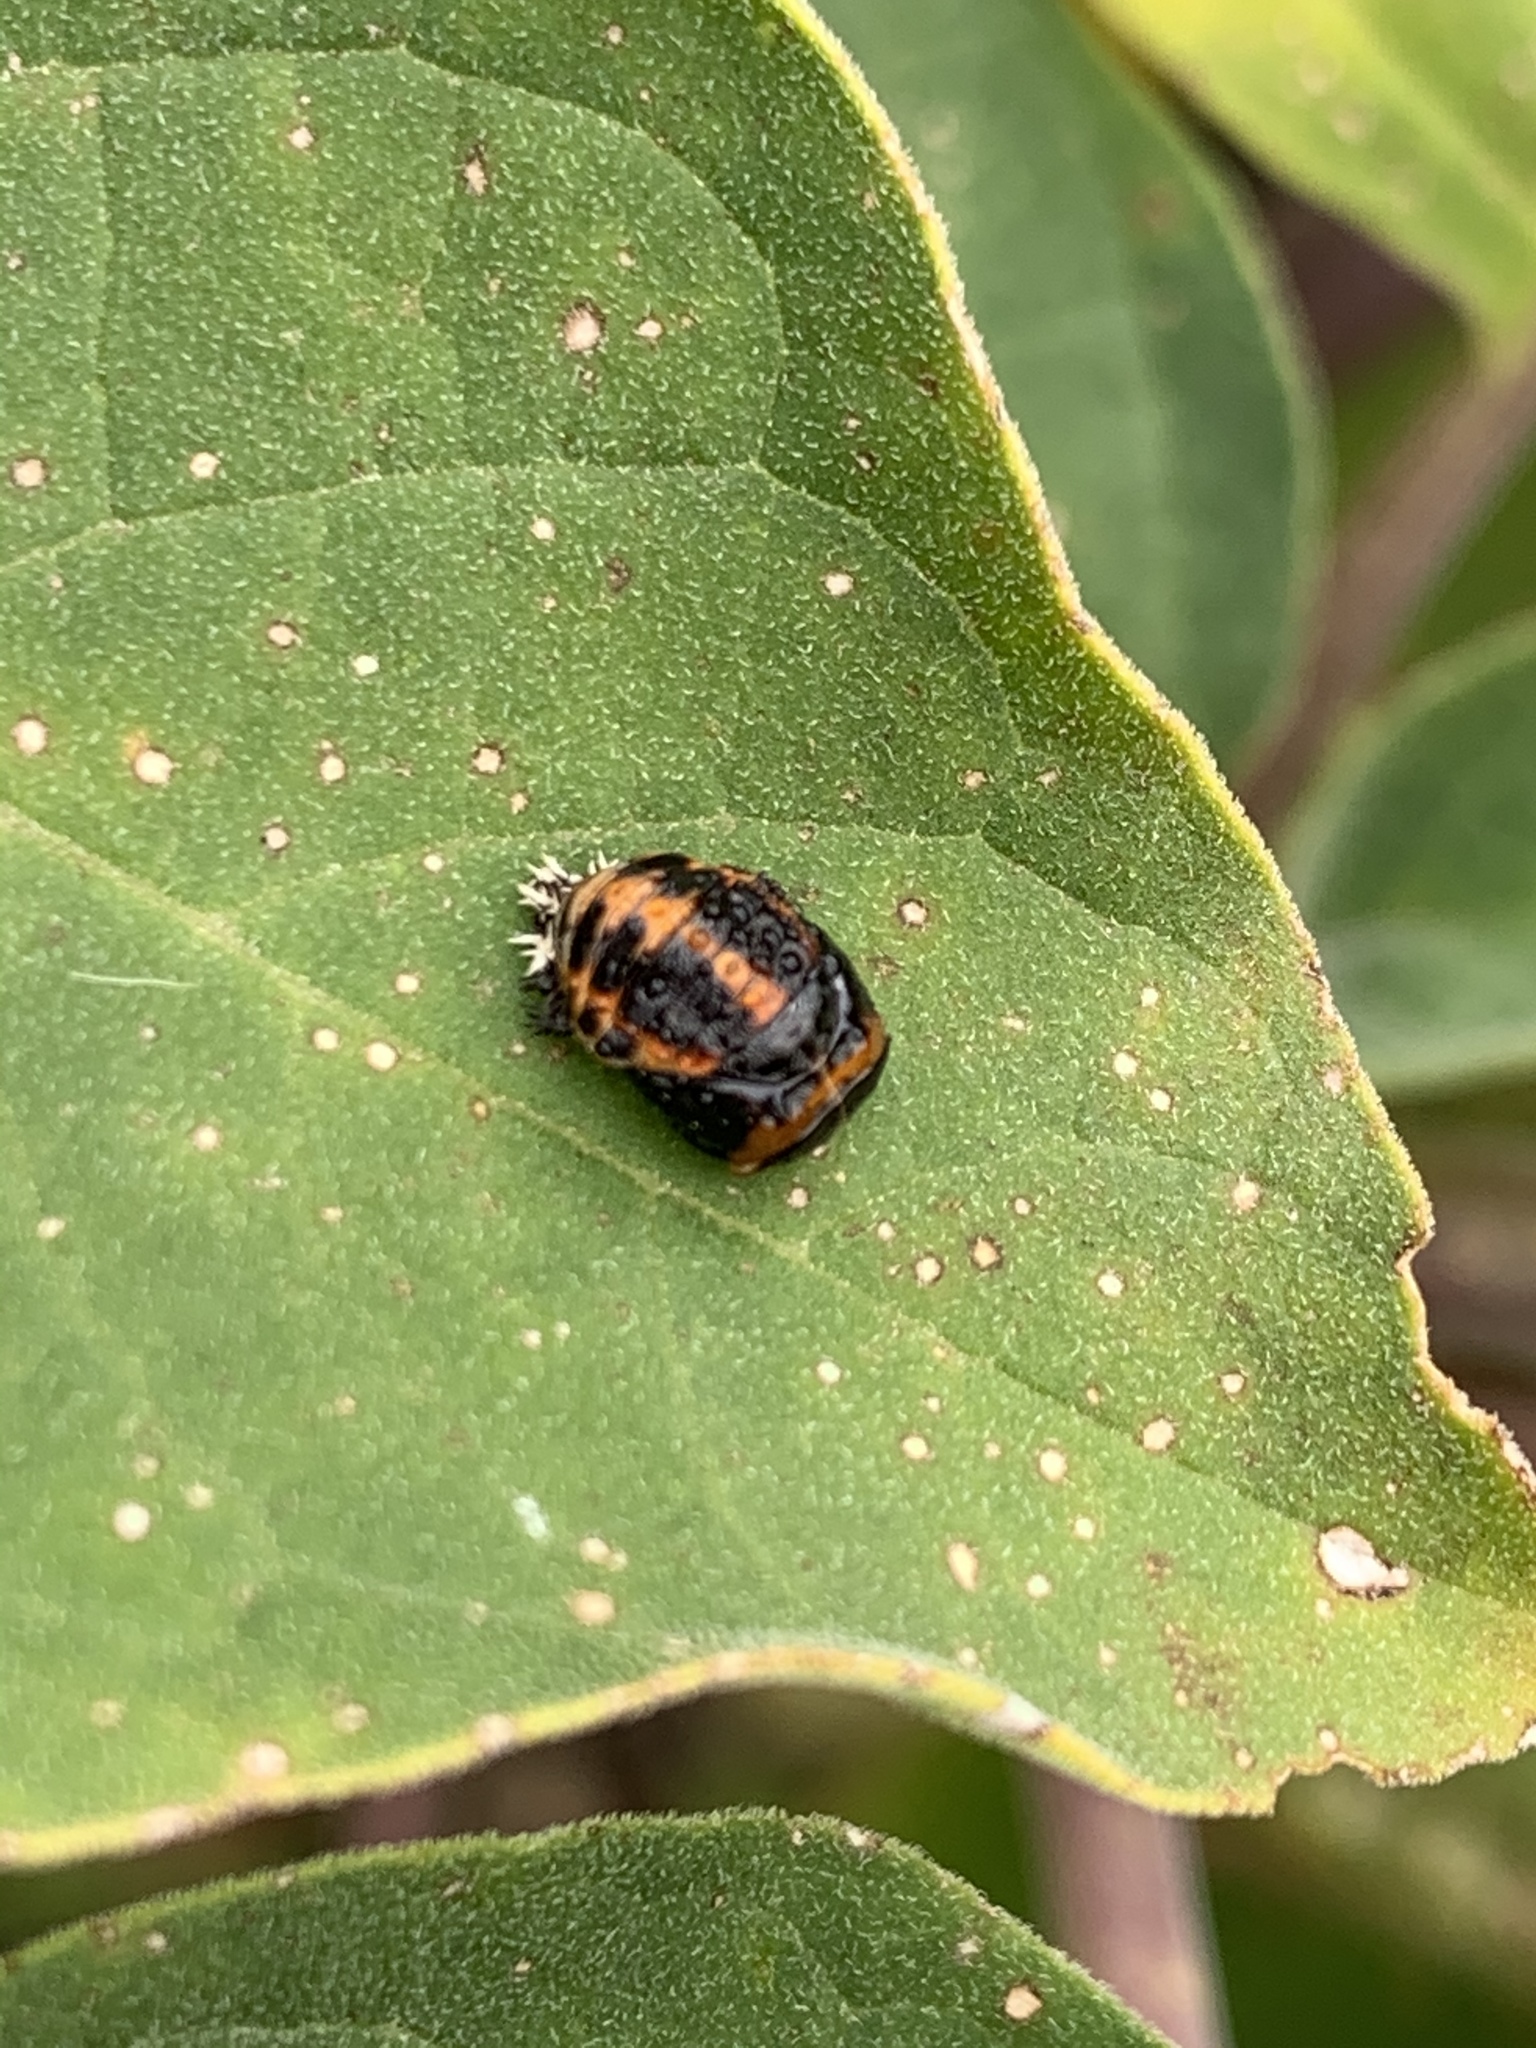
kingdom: Animalia
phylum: Arthropoda
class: Insecta
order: Coleoptera
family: Coccinellidae
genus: Harmonia
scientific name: Harmonia axyridis
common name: Harlequin ladybird
